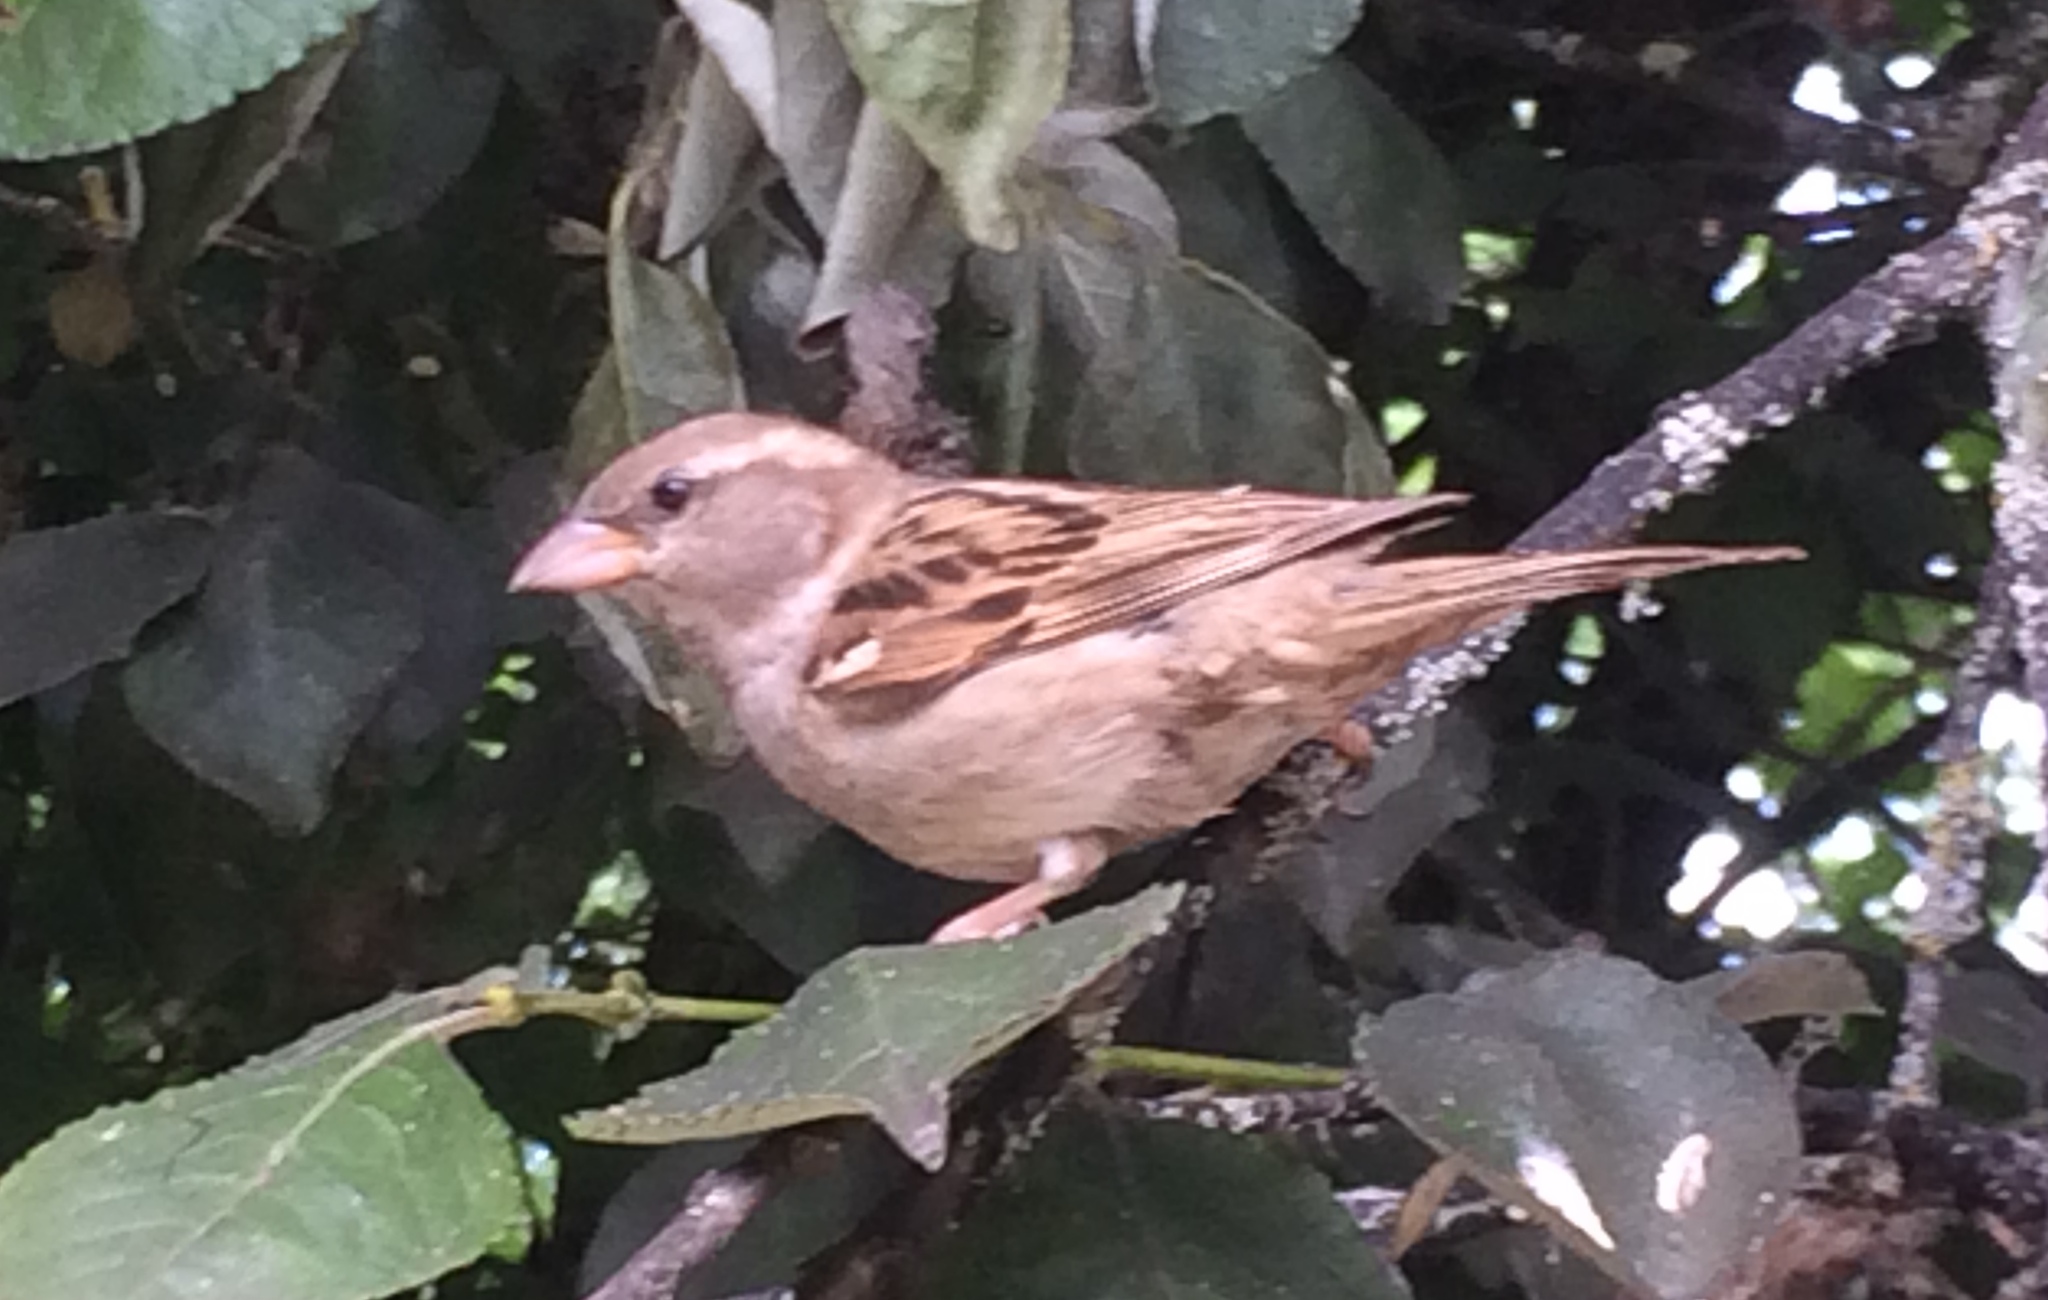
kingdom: Animalia
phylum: Chordata
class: Aves
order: Passeriformes
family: Passeridae
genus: Passer
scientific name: Passer domesticus
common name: House sparrow
